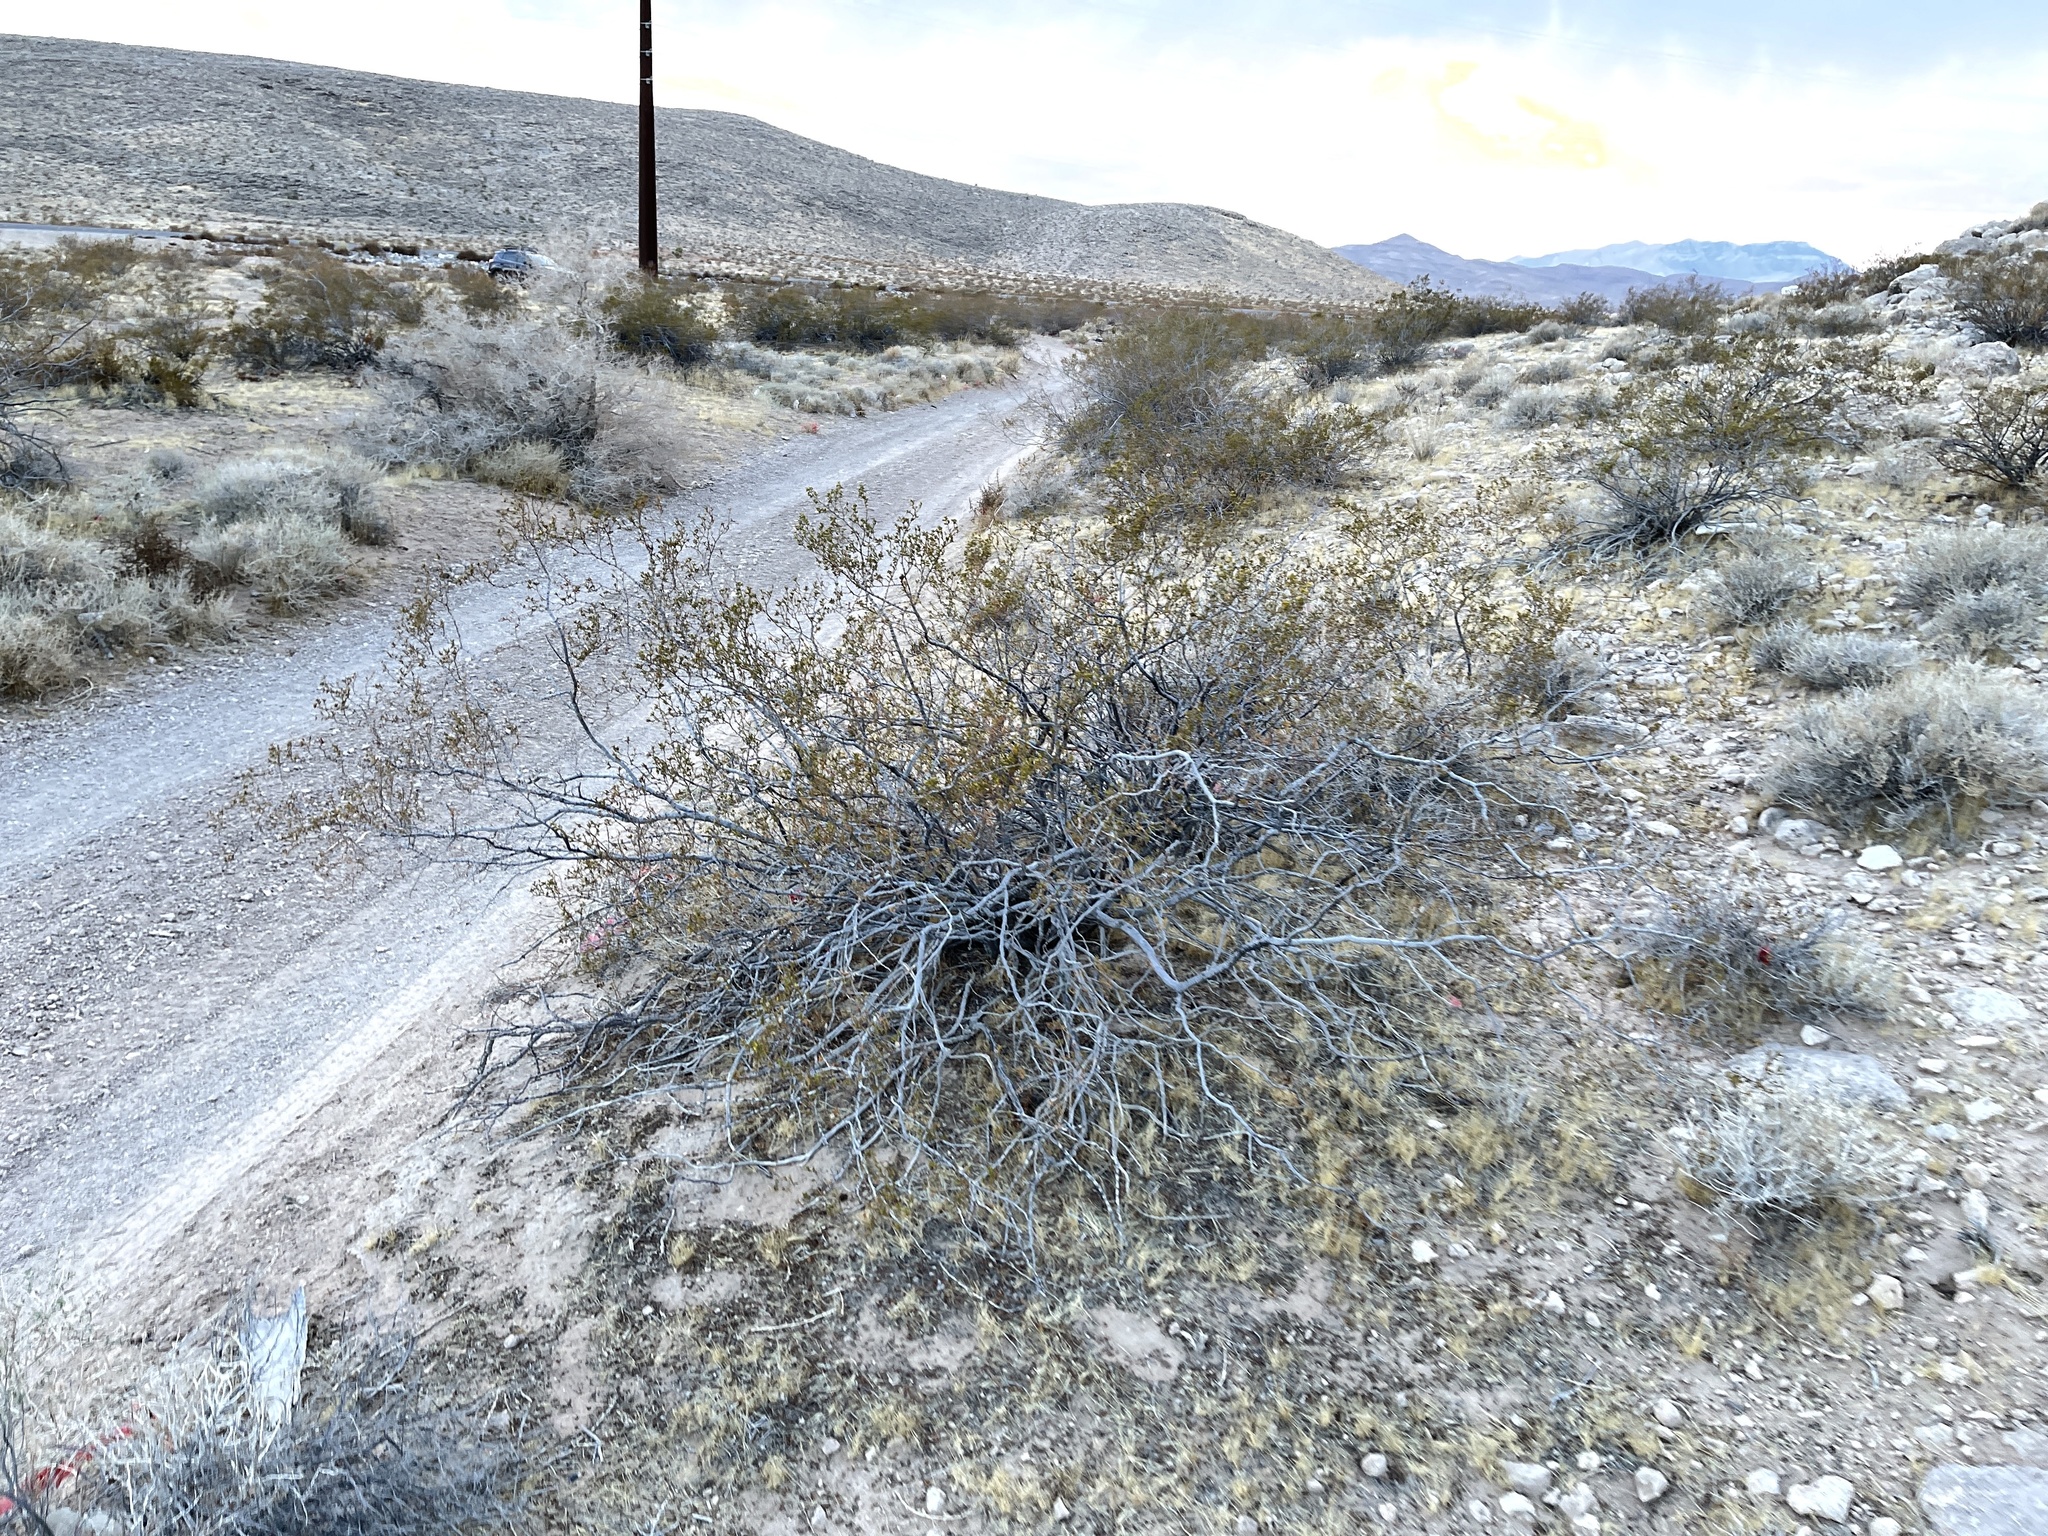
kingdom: Plantae
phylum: Tracheophyta
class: Magnoliopsida
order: Zygophyllales
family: Zygophyllaceae
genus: Larrea
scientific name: Larrea tridentata
